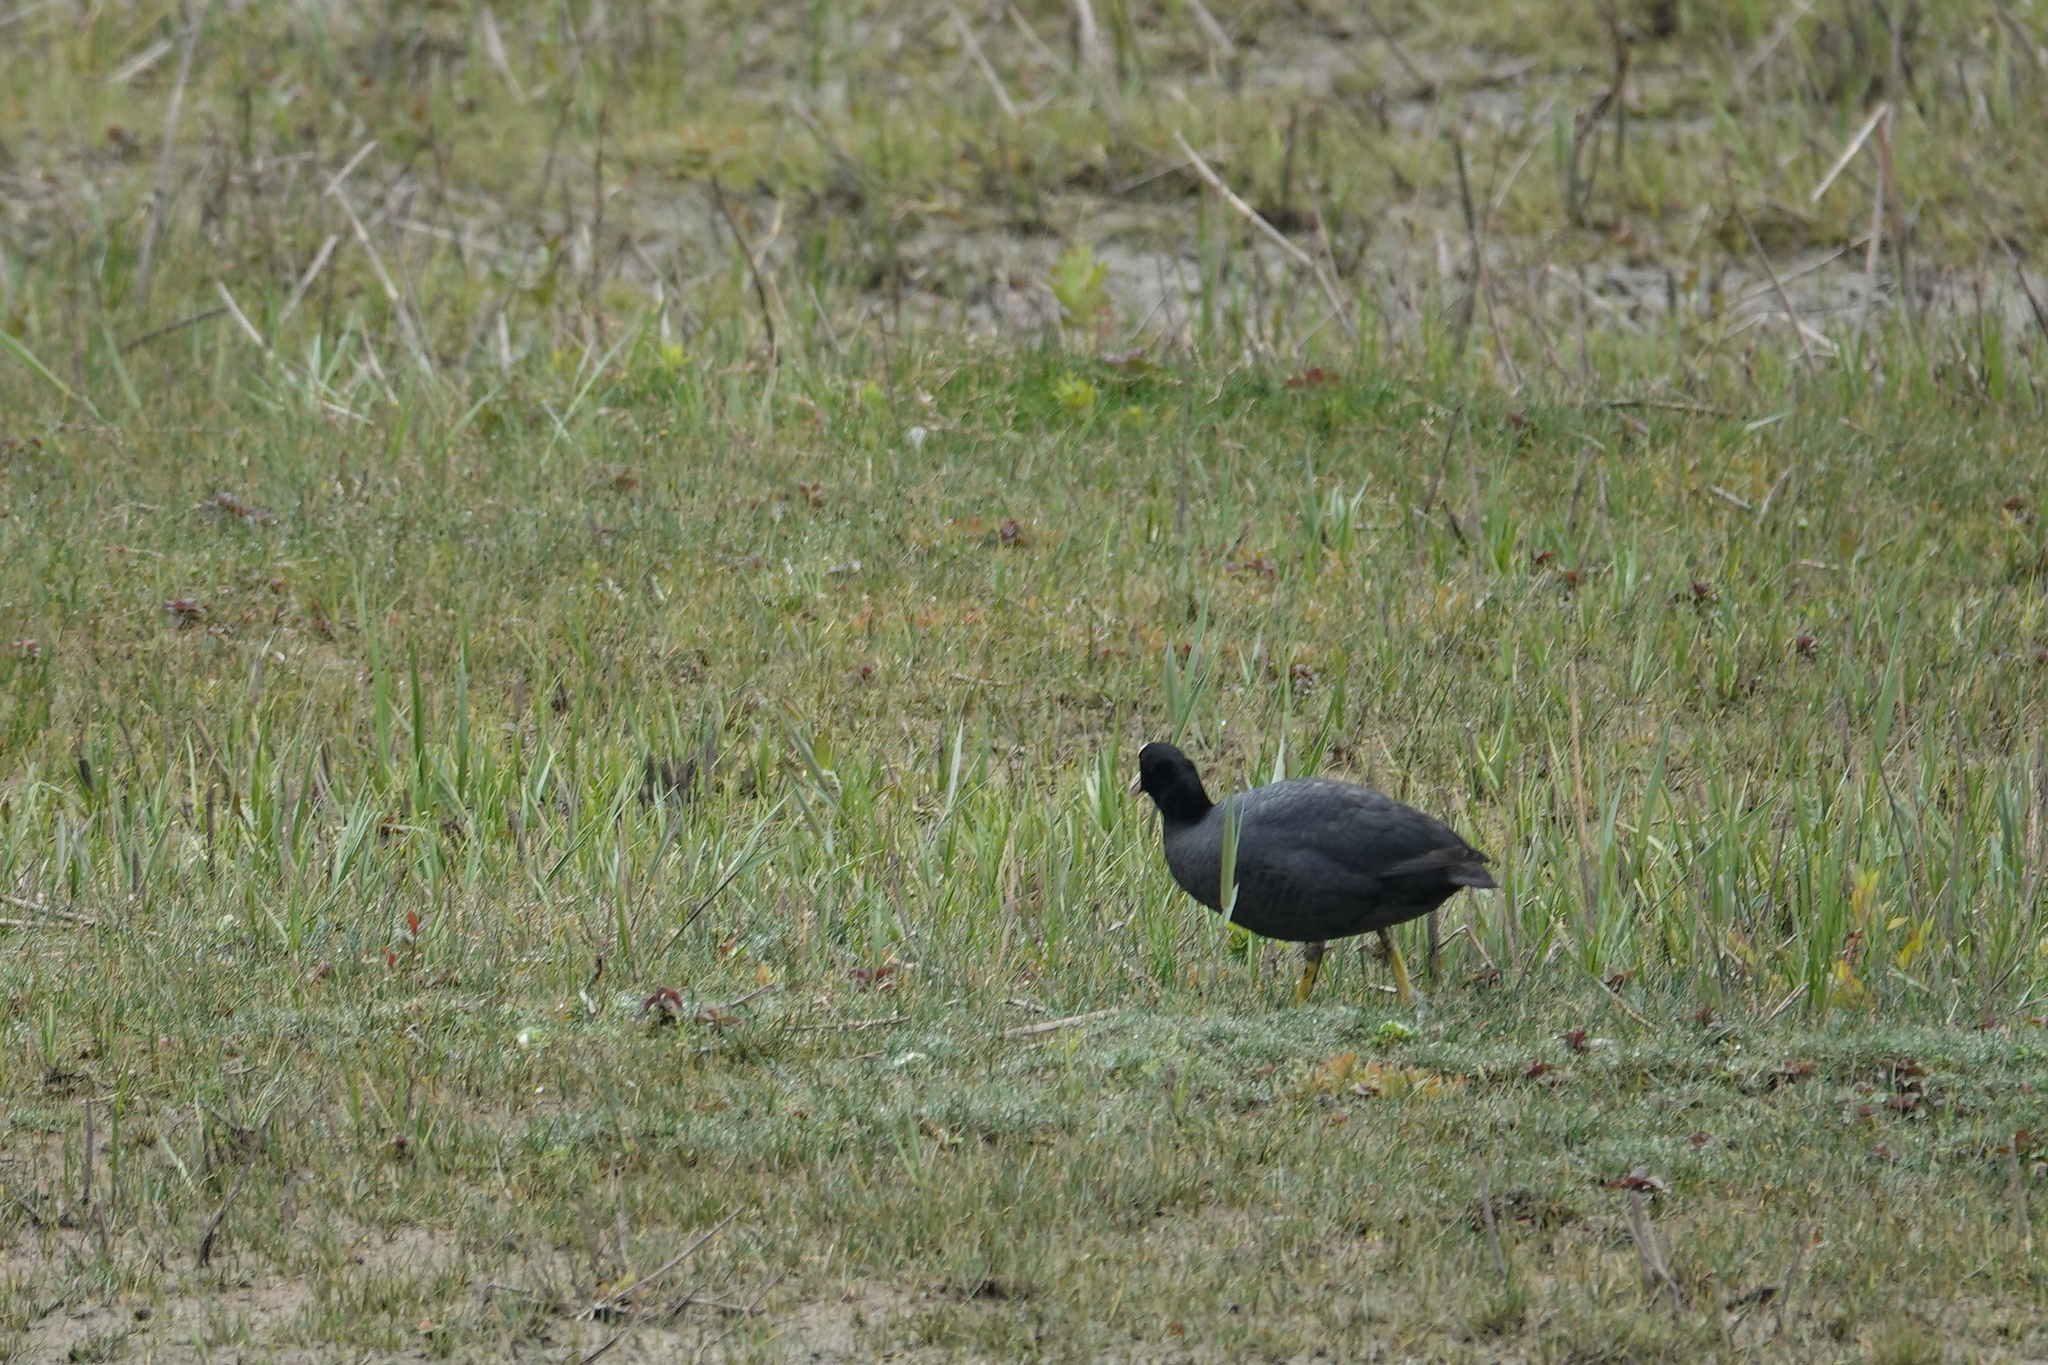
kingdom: Animalia
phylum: Chordata
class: Aves
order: Gruiformes
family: Rallidae
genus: Fulica
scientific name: Fulica atra
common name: Eurasian coot
